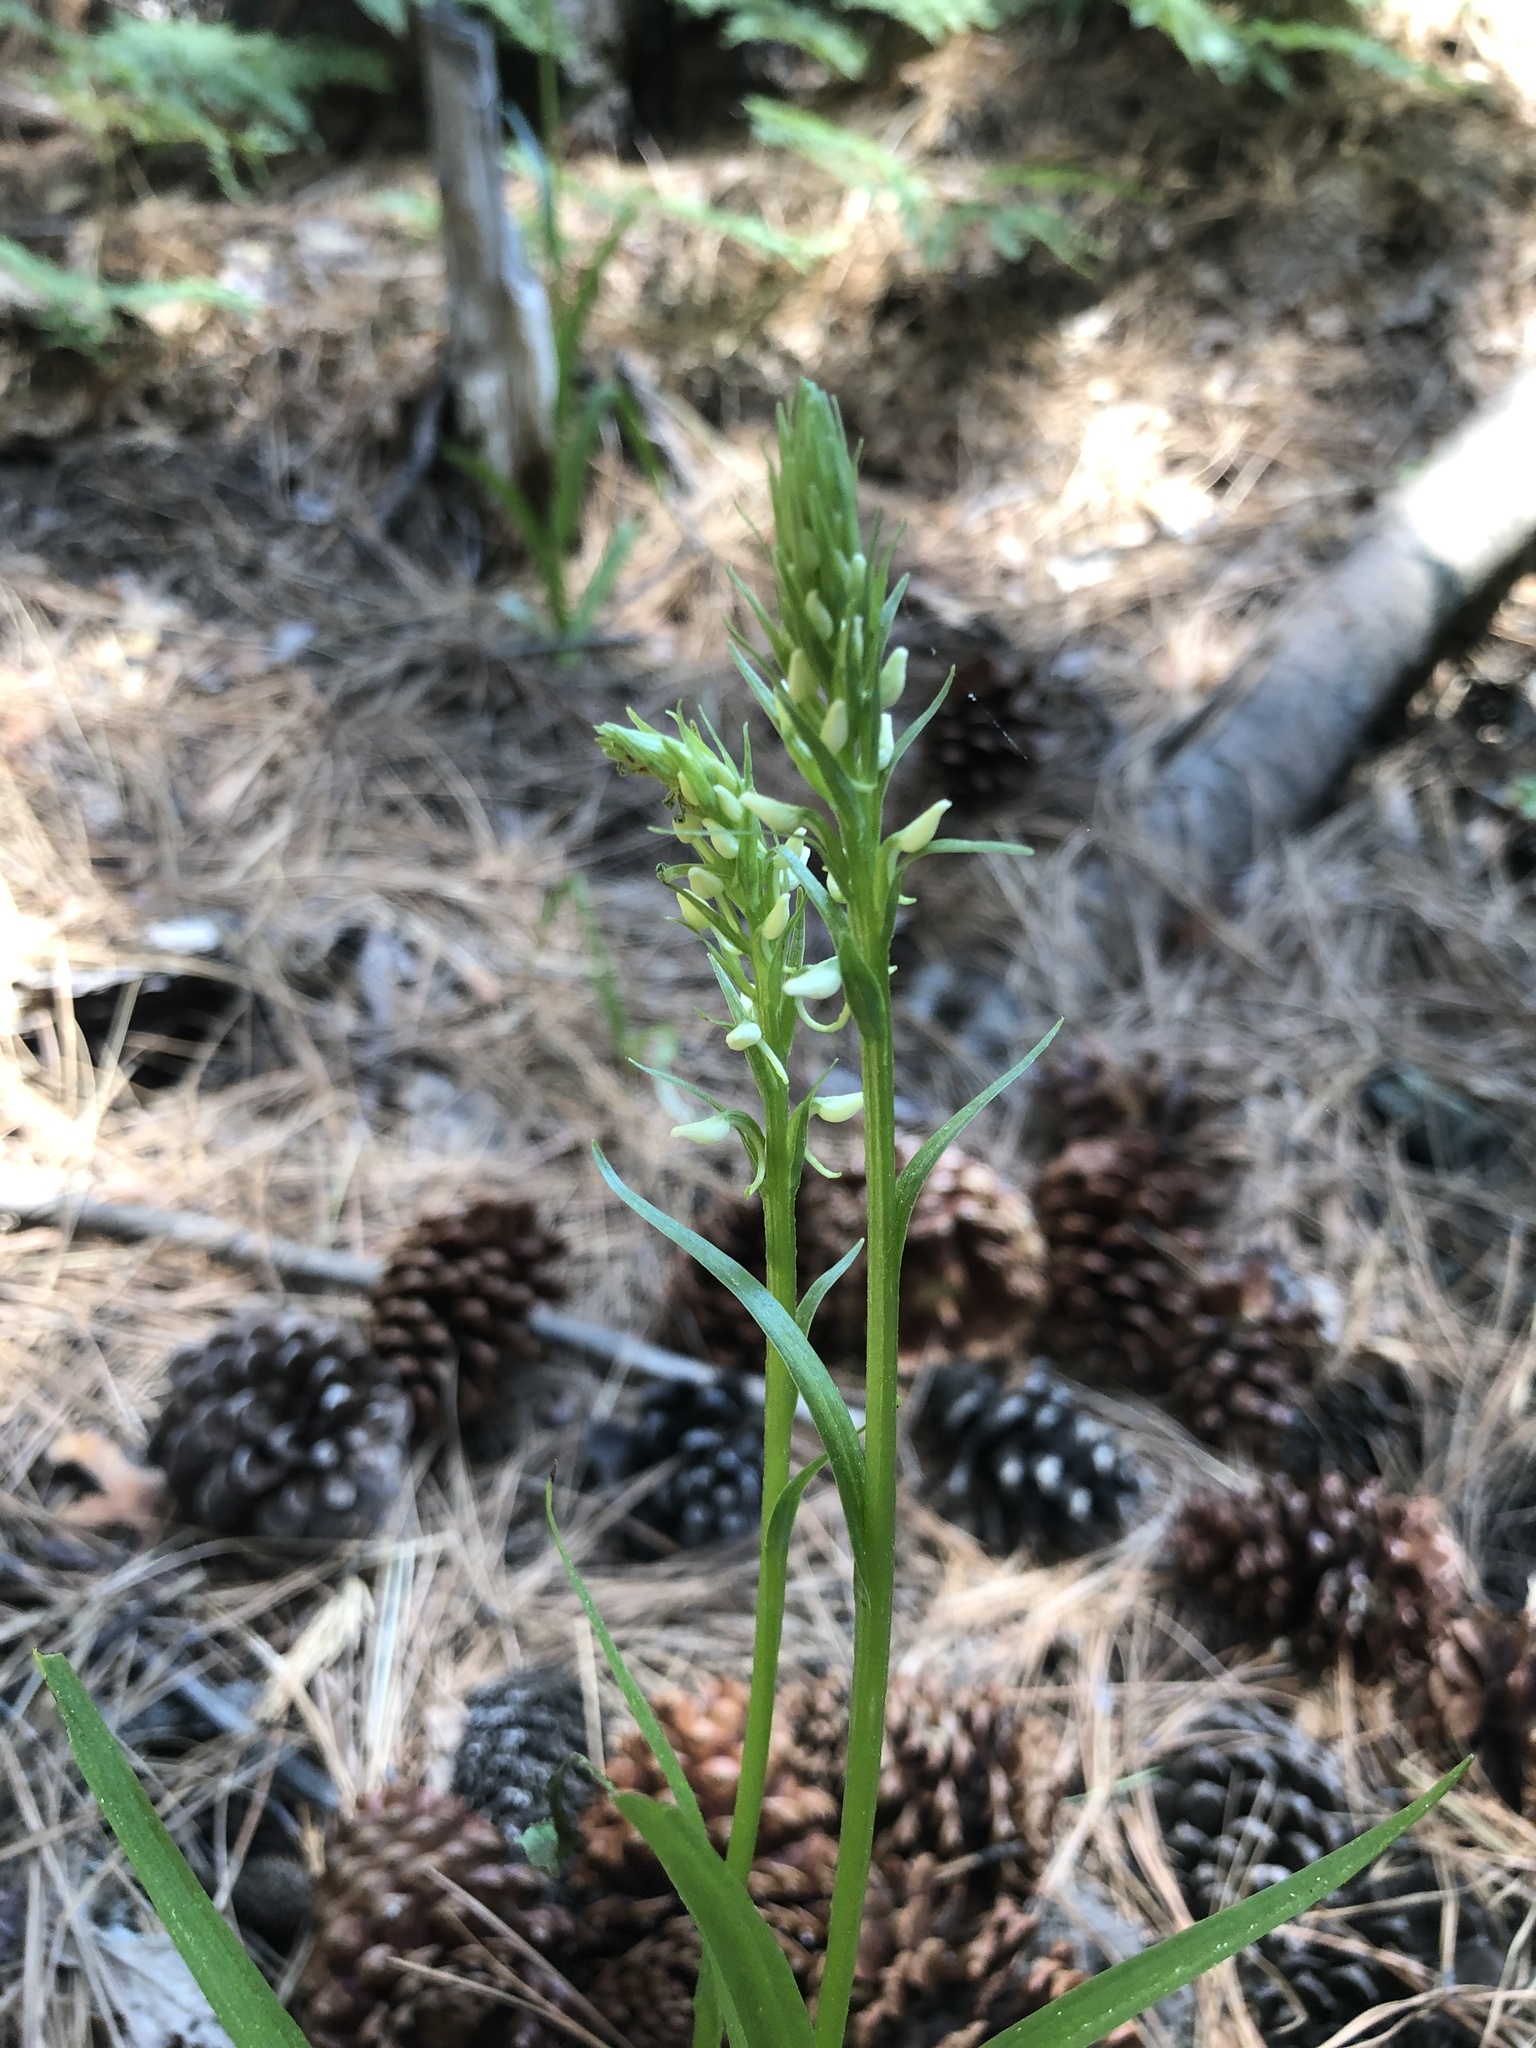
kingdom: Plantae
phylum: Tracheophyta
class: Liliopsida
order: Asparagales
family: Orchidaceae
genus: Platanthera
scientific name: Platanthera dilatata
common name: Bog candles
